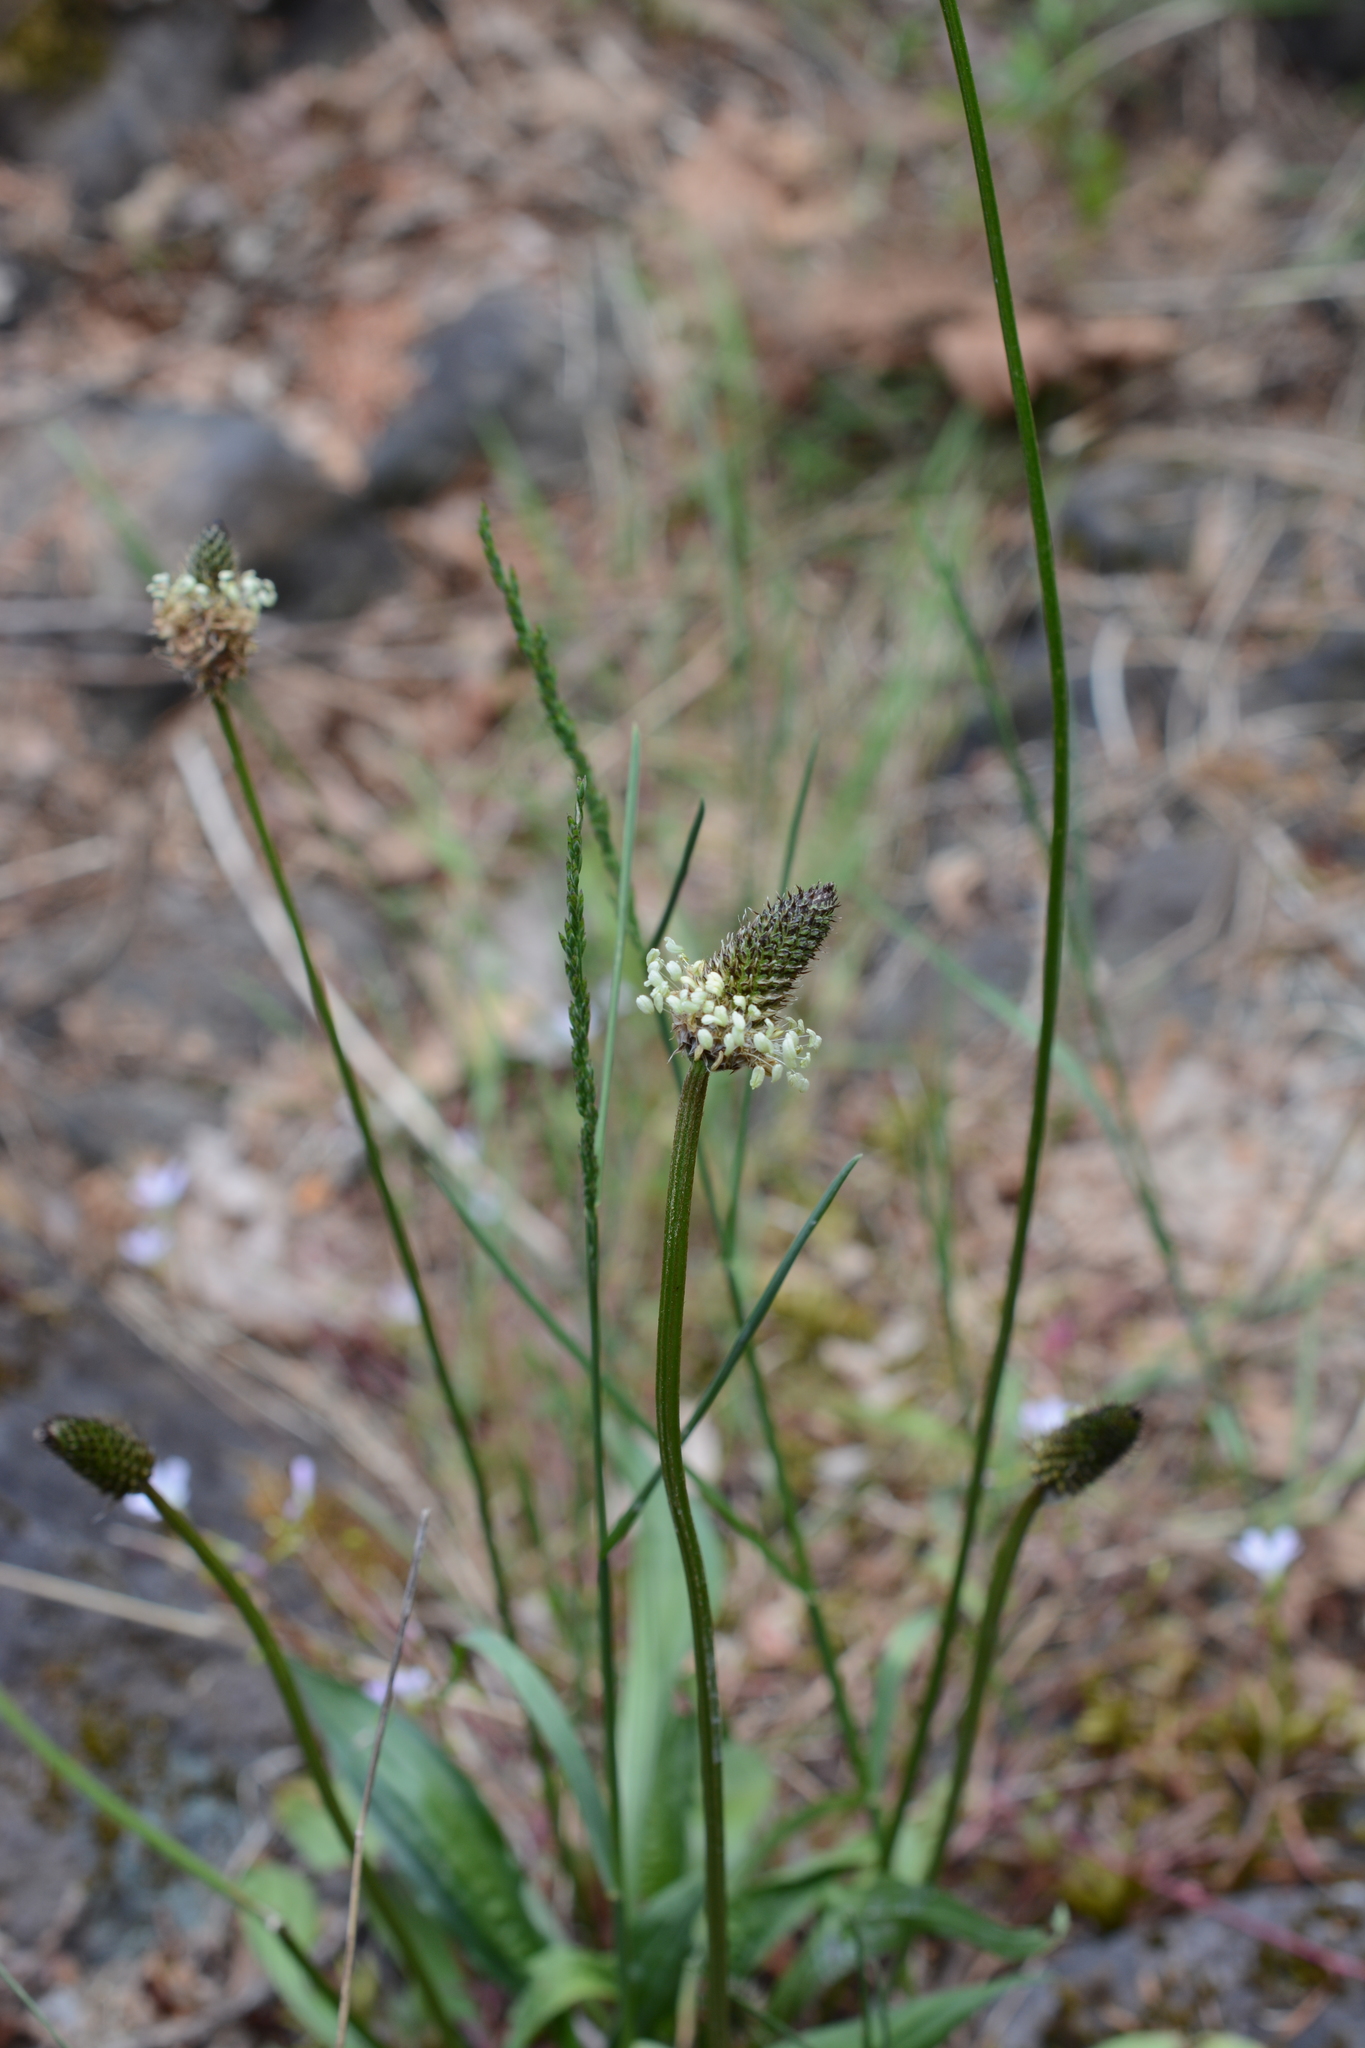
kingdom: Plantae
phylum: Tracheophyta
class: Magnoliopsida
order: Lamiales
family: Plantaginaceae
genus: Plantago
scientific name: Plantago lanceolata
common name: Ribwort plantain
